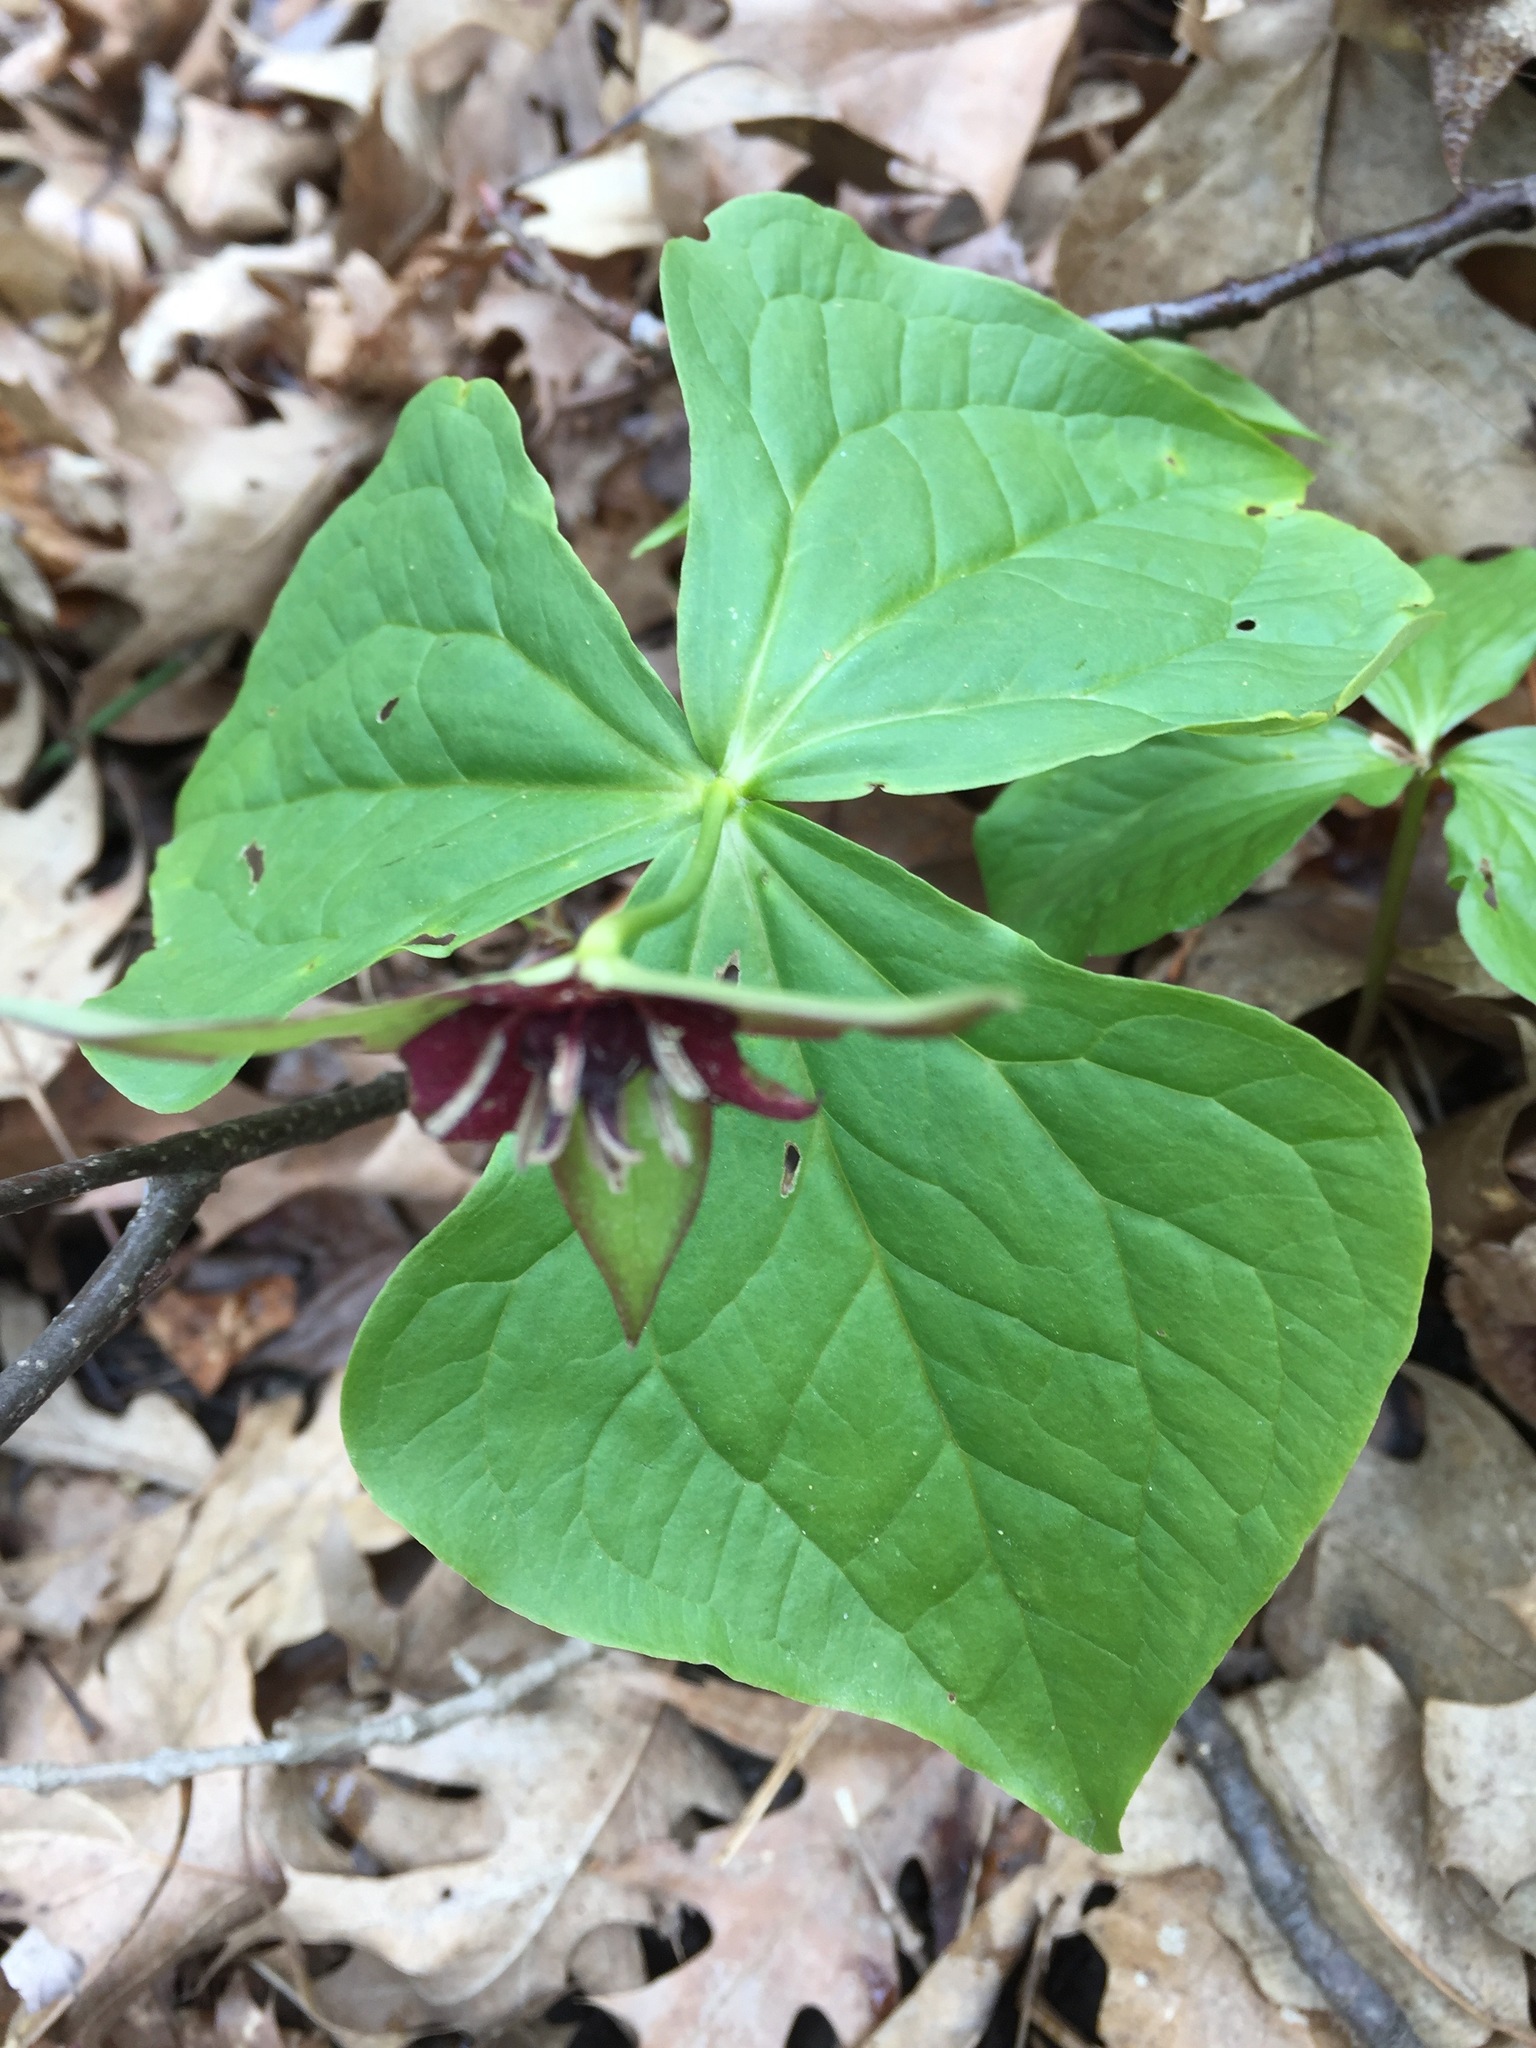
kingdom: Plantae
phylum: Tracheophyta
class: Liliopsida
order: Liliales
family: Melanthiaceae
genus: Trillium
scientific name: Trillium erectum
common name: Purple trillium
